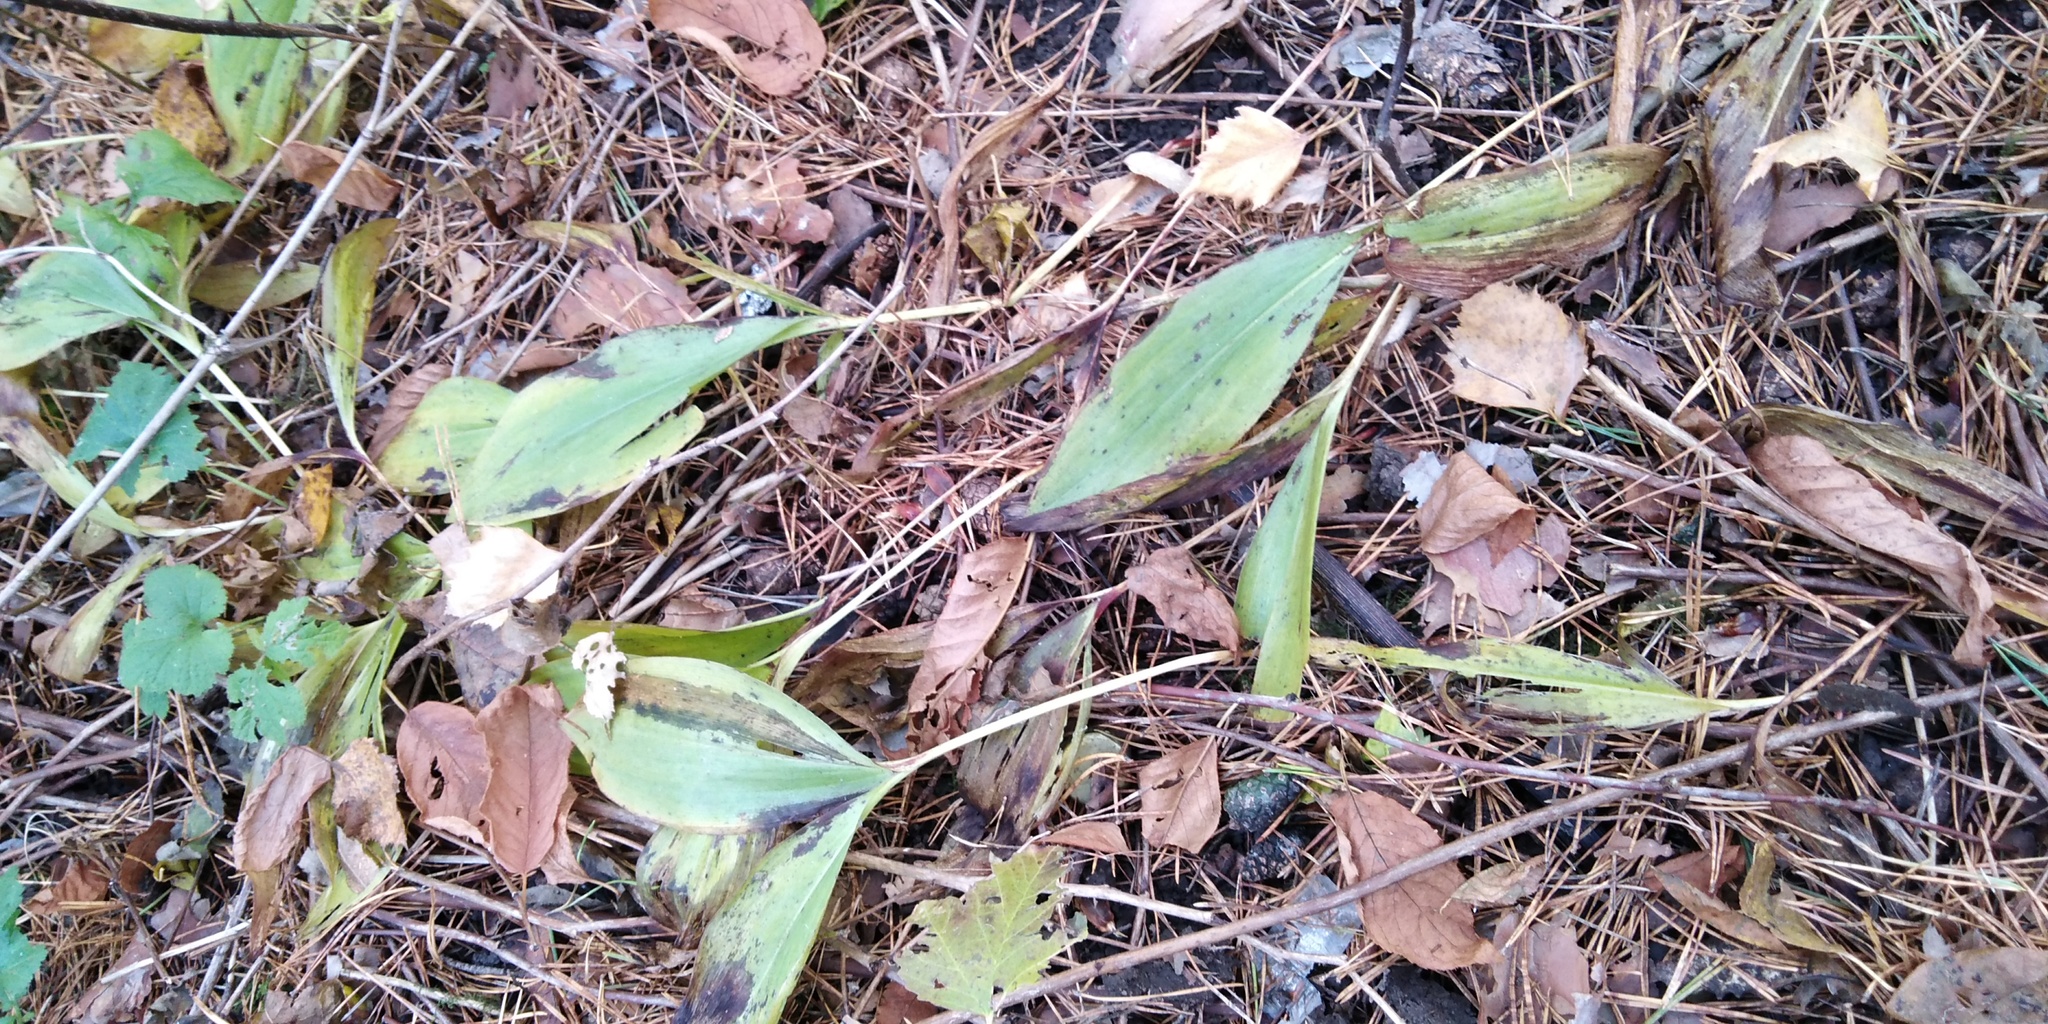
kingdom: Plantae
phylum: Tracheophyta
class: Liliopsida
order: Asparagales
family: Asparagaceae
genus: Convallaria
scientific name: Convallaria majalis
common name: Lily-of-the-valley
